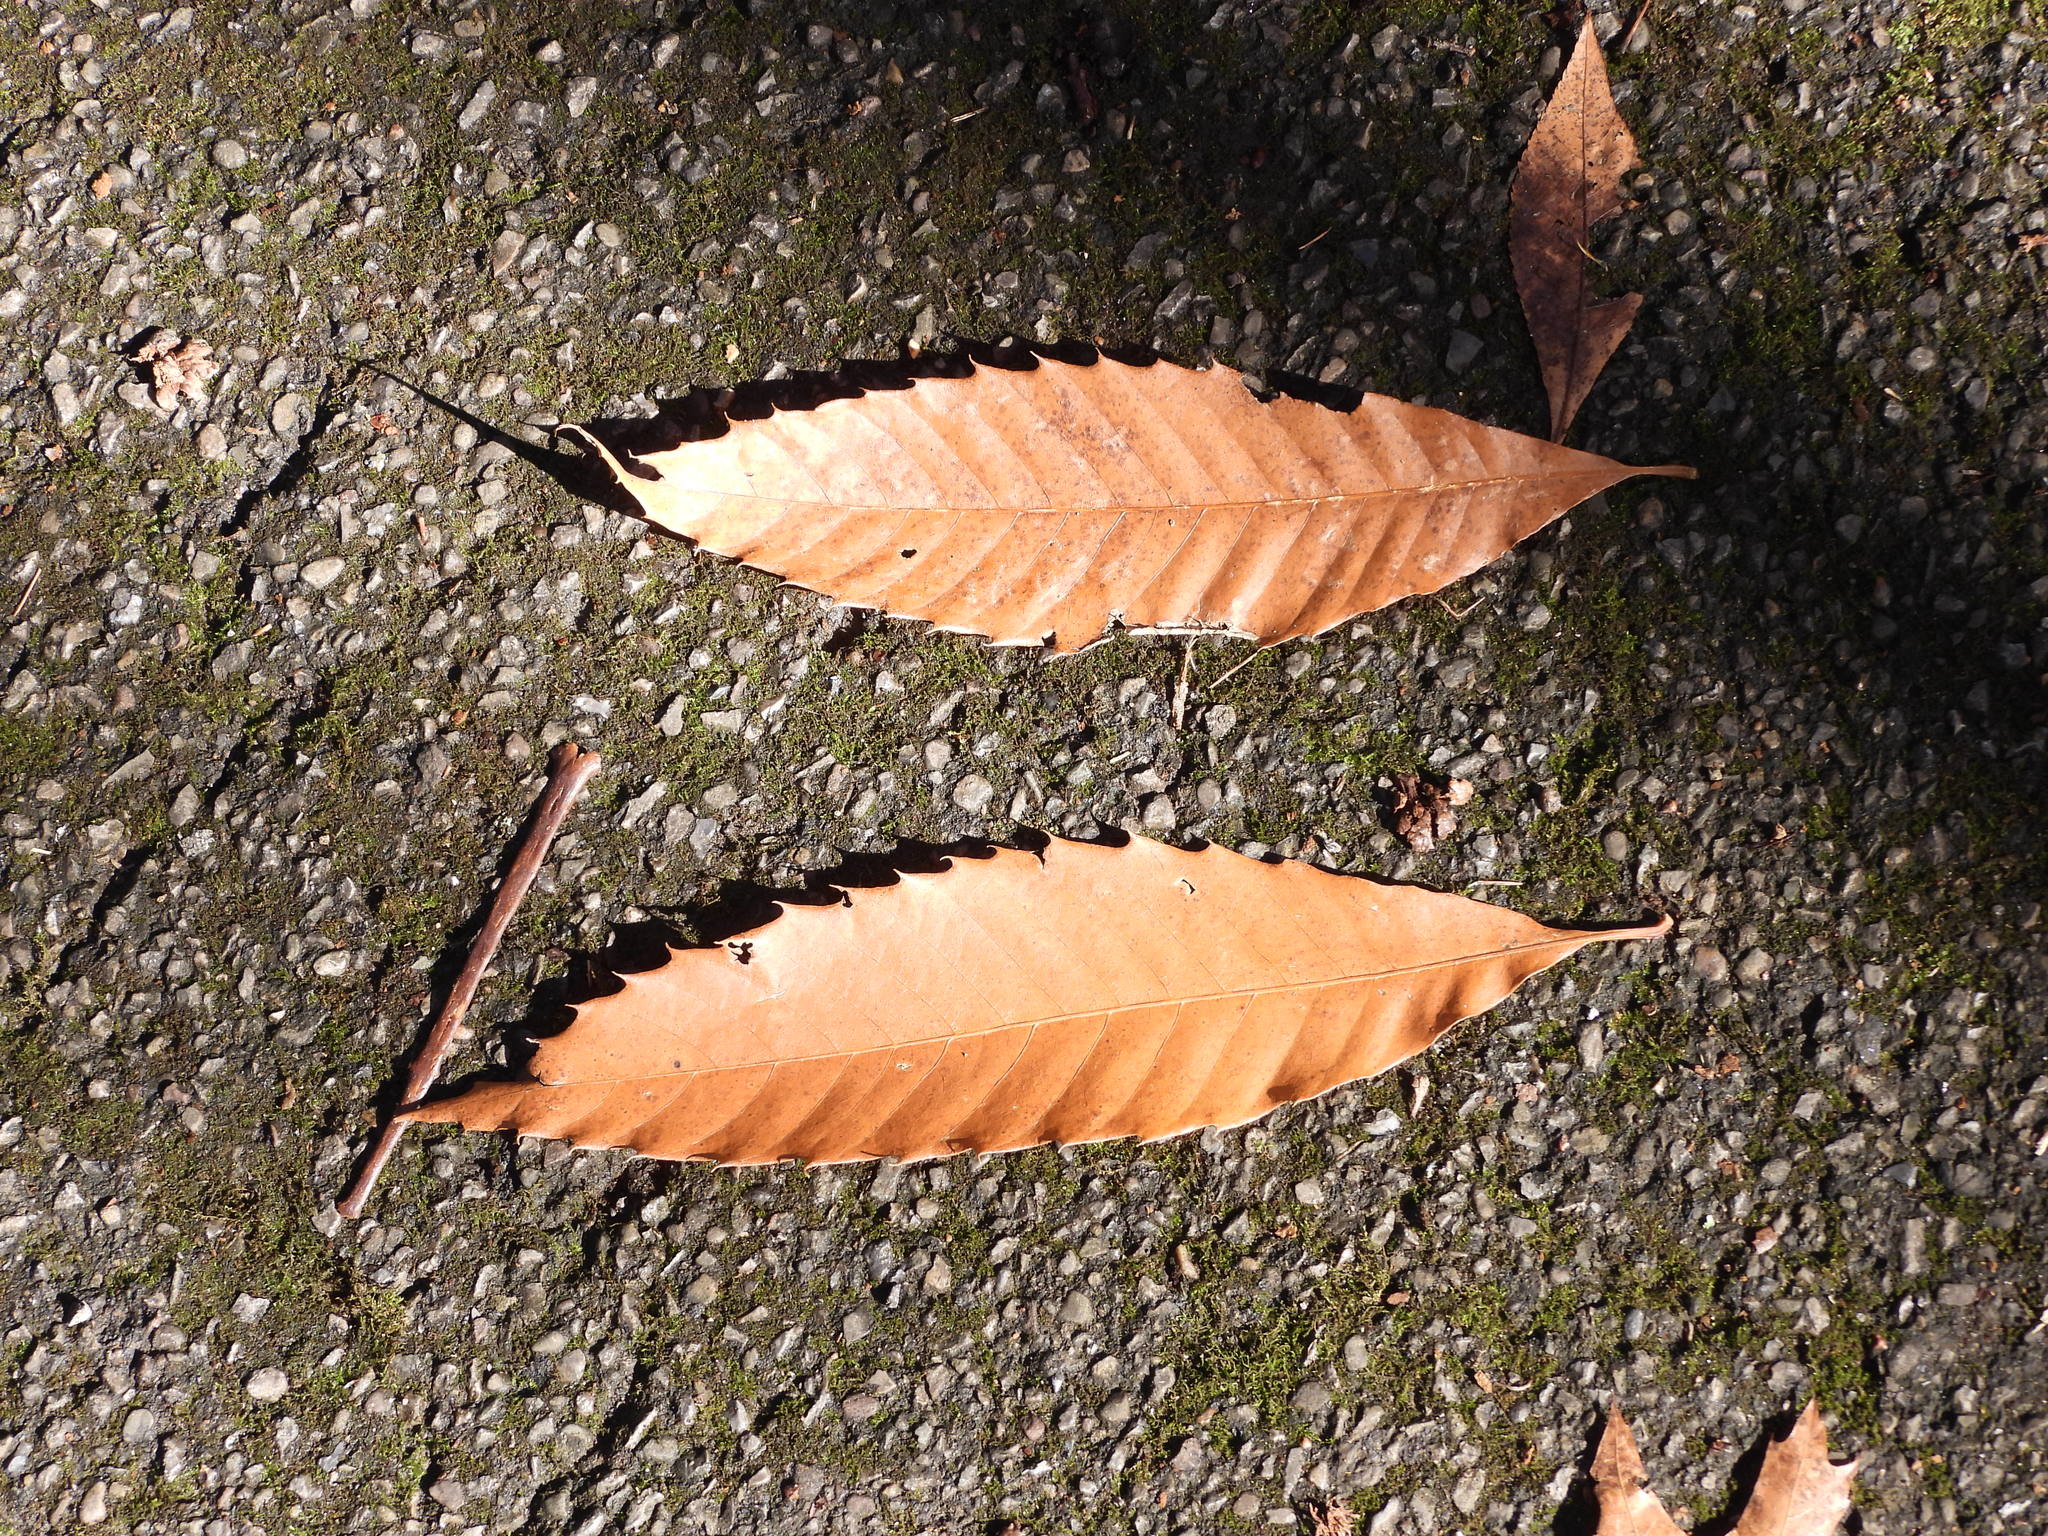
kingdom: Plantae
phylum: Tracheophyta
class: Magnoliopsida
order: Fagales
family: Fagaceae
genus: Castanea
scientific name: Castanea dentata
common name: American chestnut
